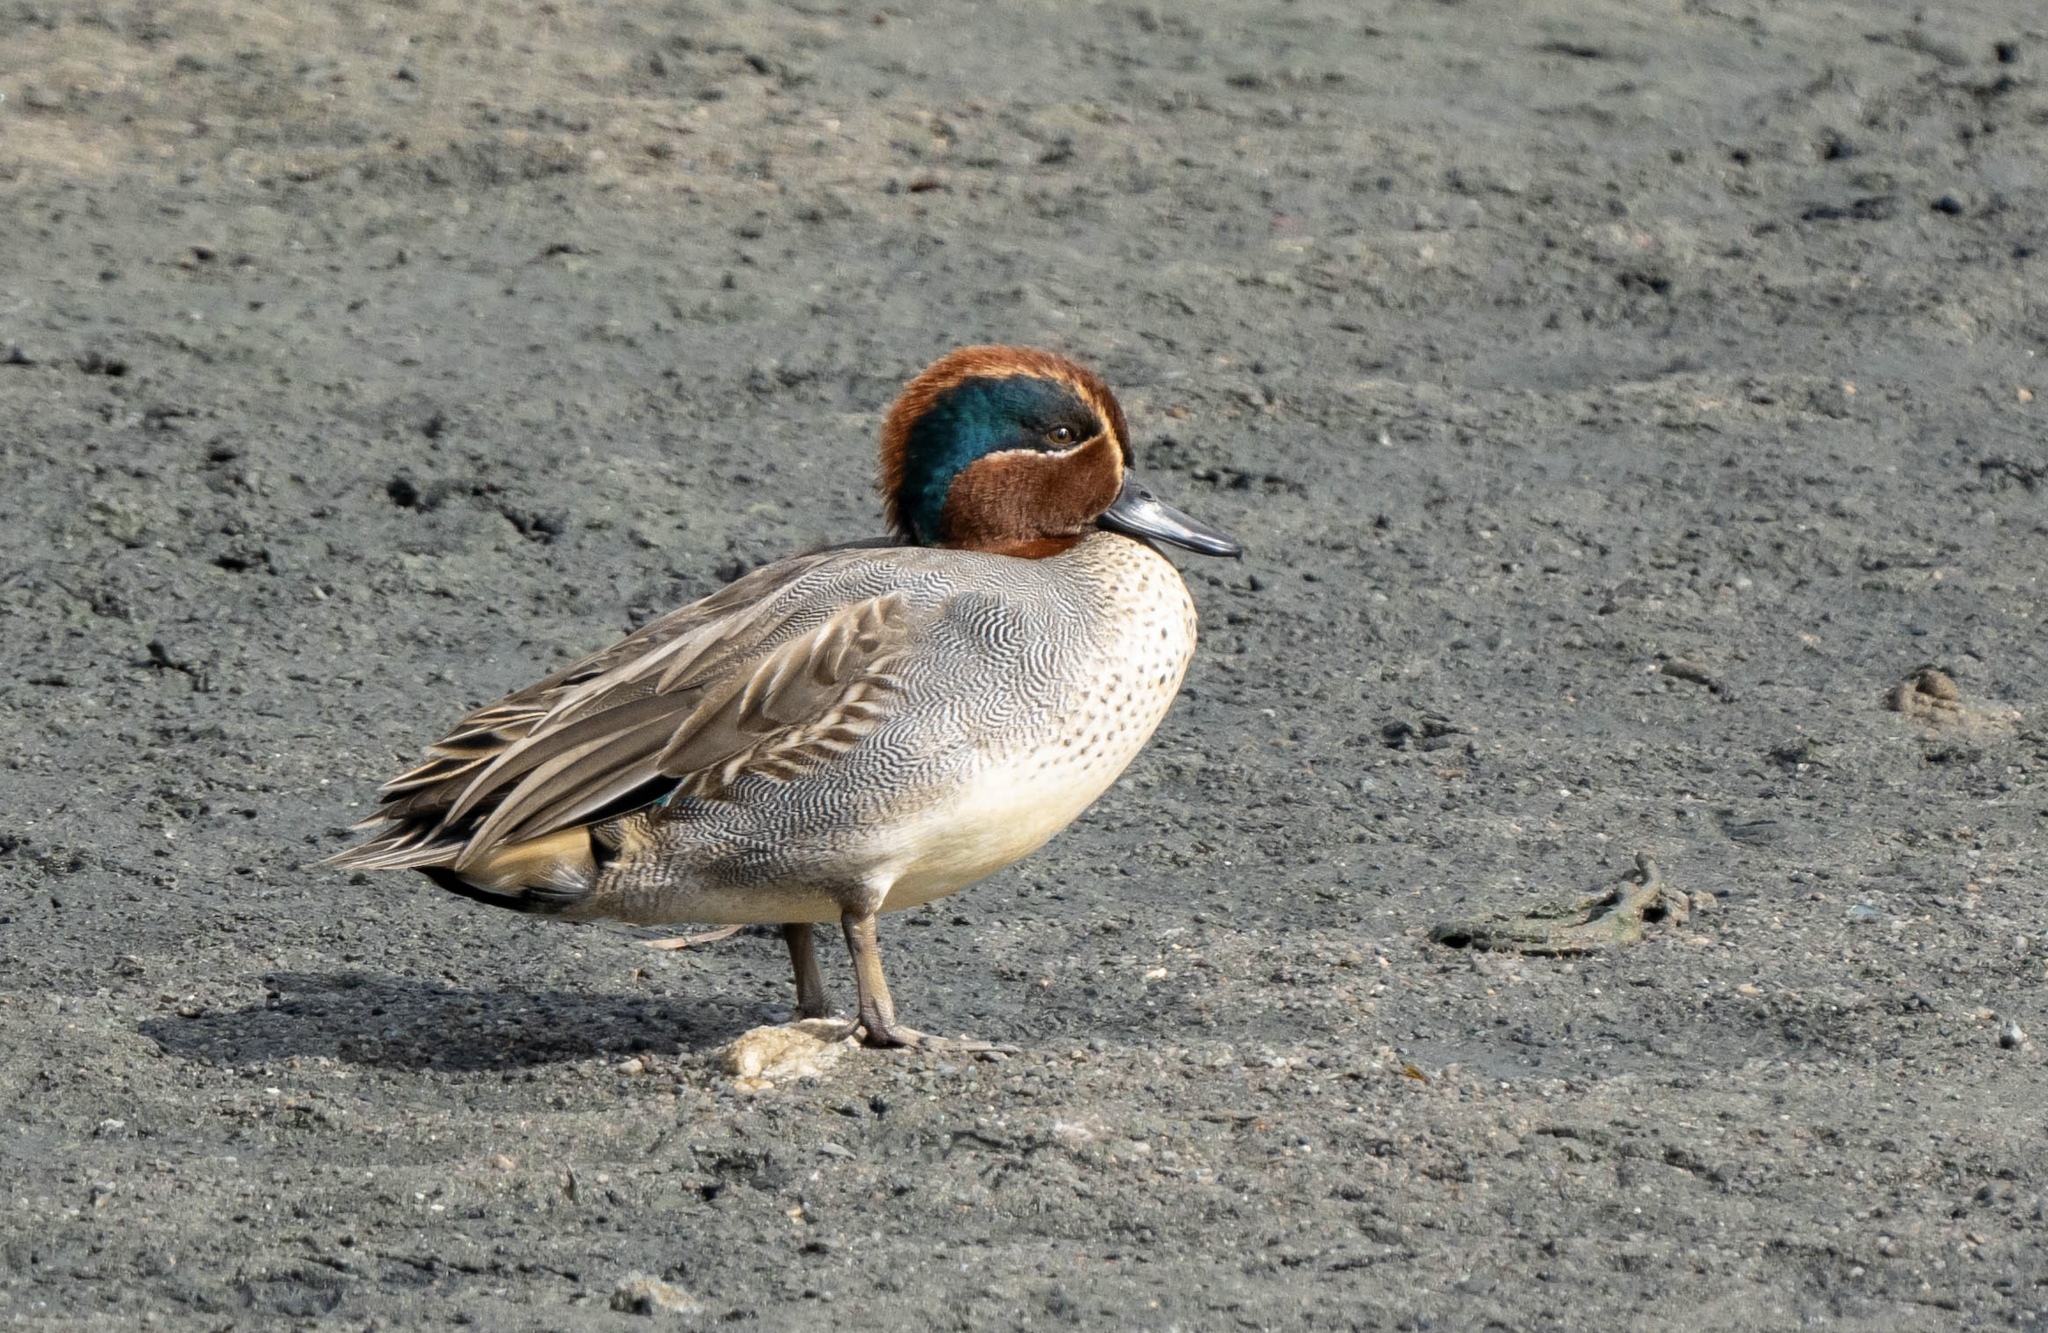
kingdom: Animalia
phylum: Chordata
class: Aves
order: Anseriformes
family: Anatidae
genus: Anas
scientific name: Anas crecca
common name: Eurasian teal
